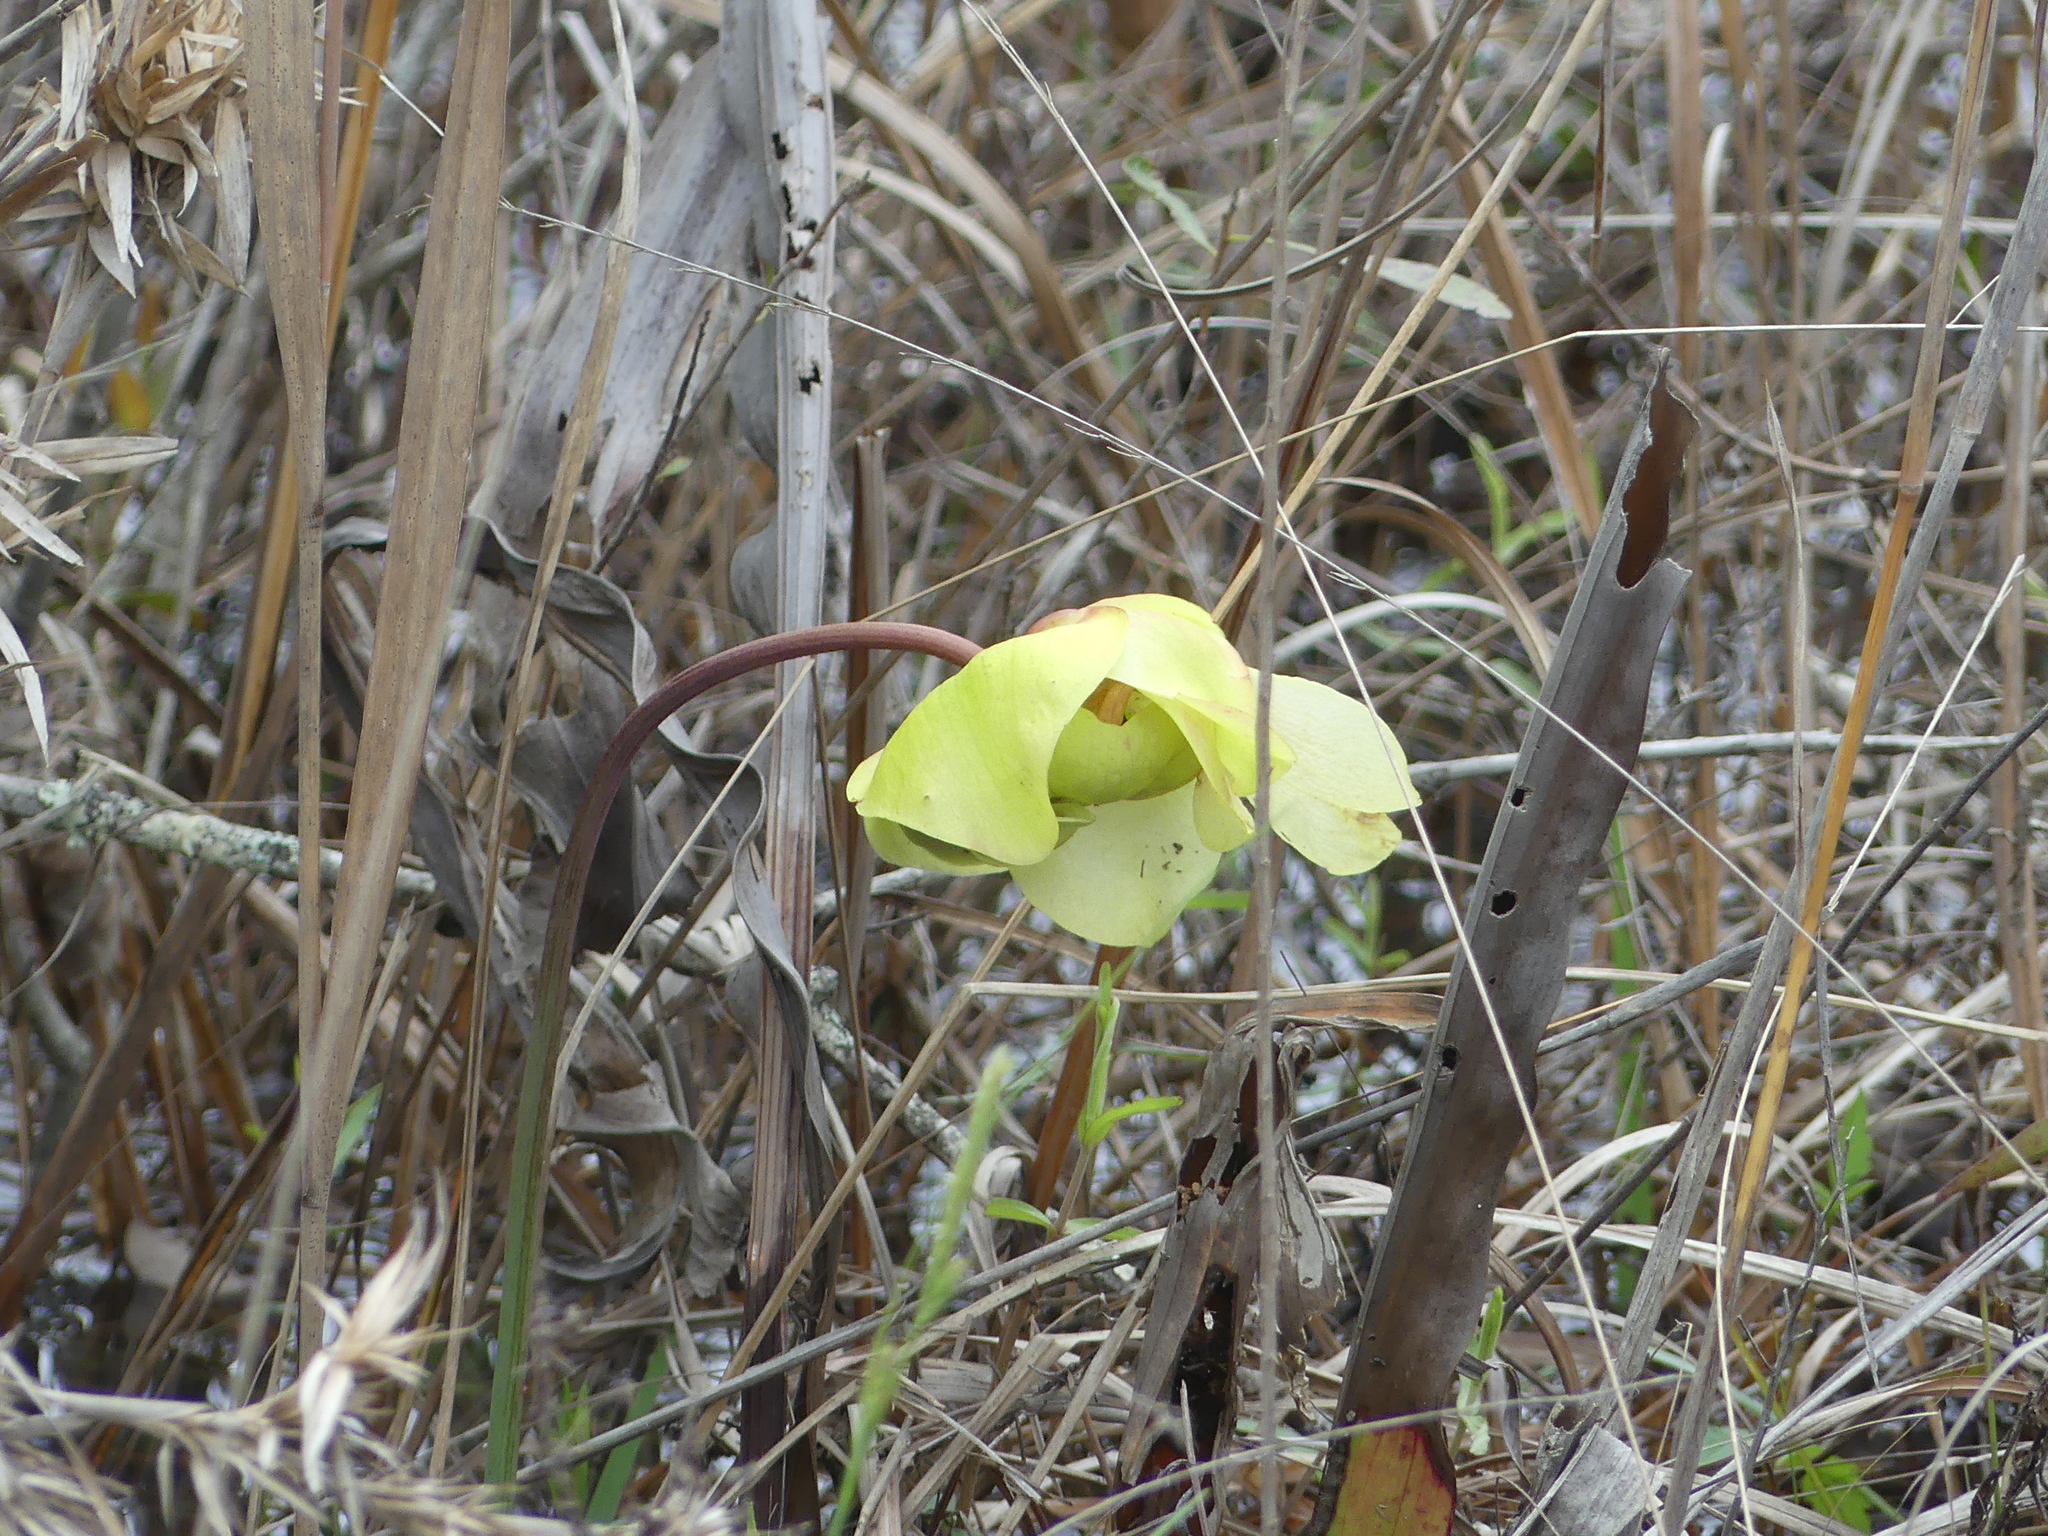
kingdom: Plantae
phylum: Tracheophyta
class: Magnoliopsida
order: Ericales
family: Sarraceniaceae
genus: Sarracenia
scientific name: Sarracenia alata
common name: Yellow trumpets
